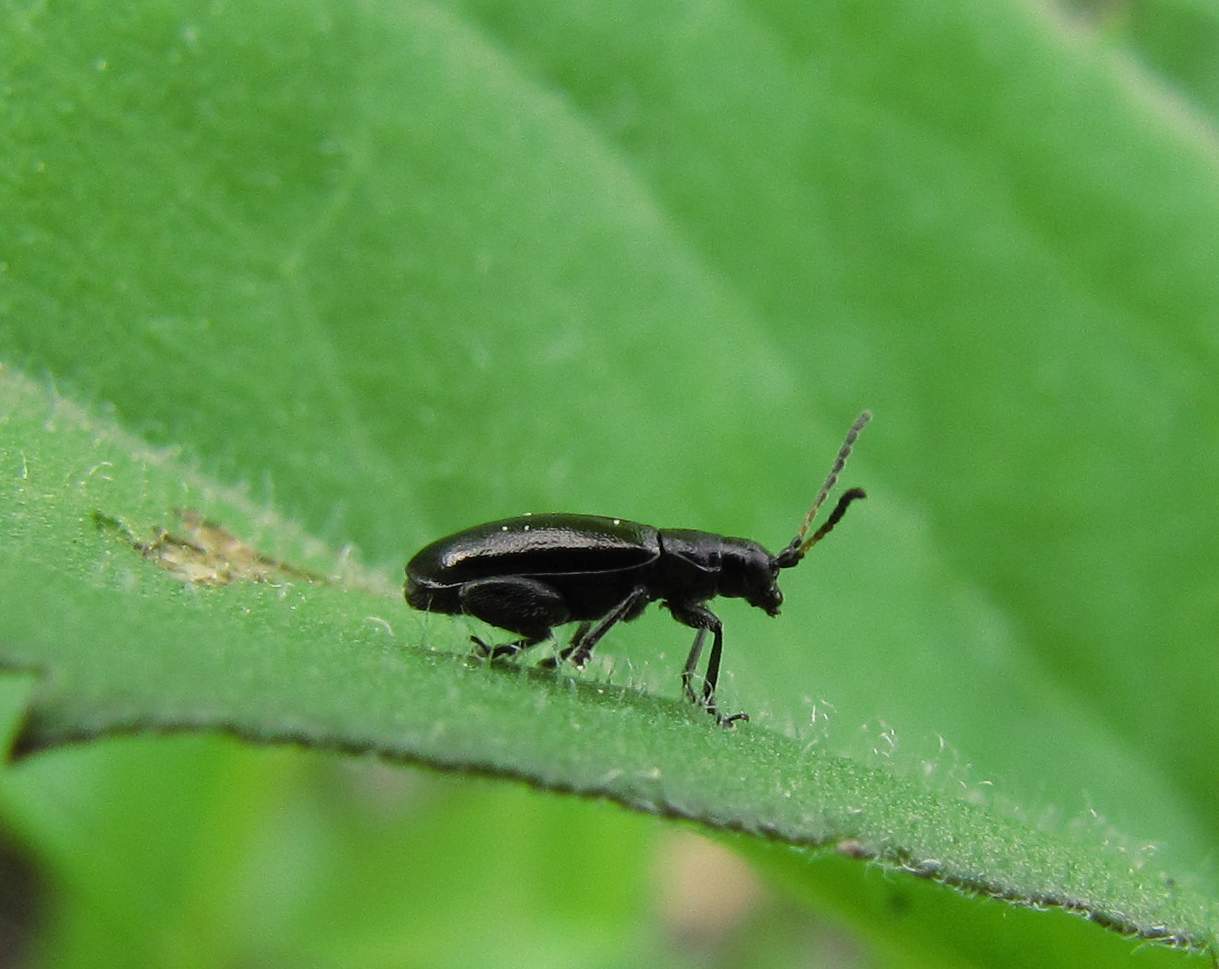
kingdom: Animalia
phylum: Arthropoda
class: Insecta
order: Coleoptera
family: Chrysomelidae
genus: Systena
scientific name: Systena hudsonias
